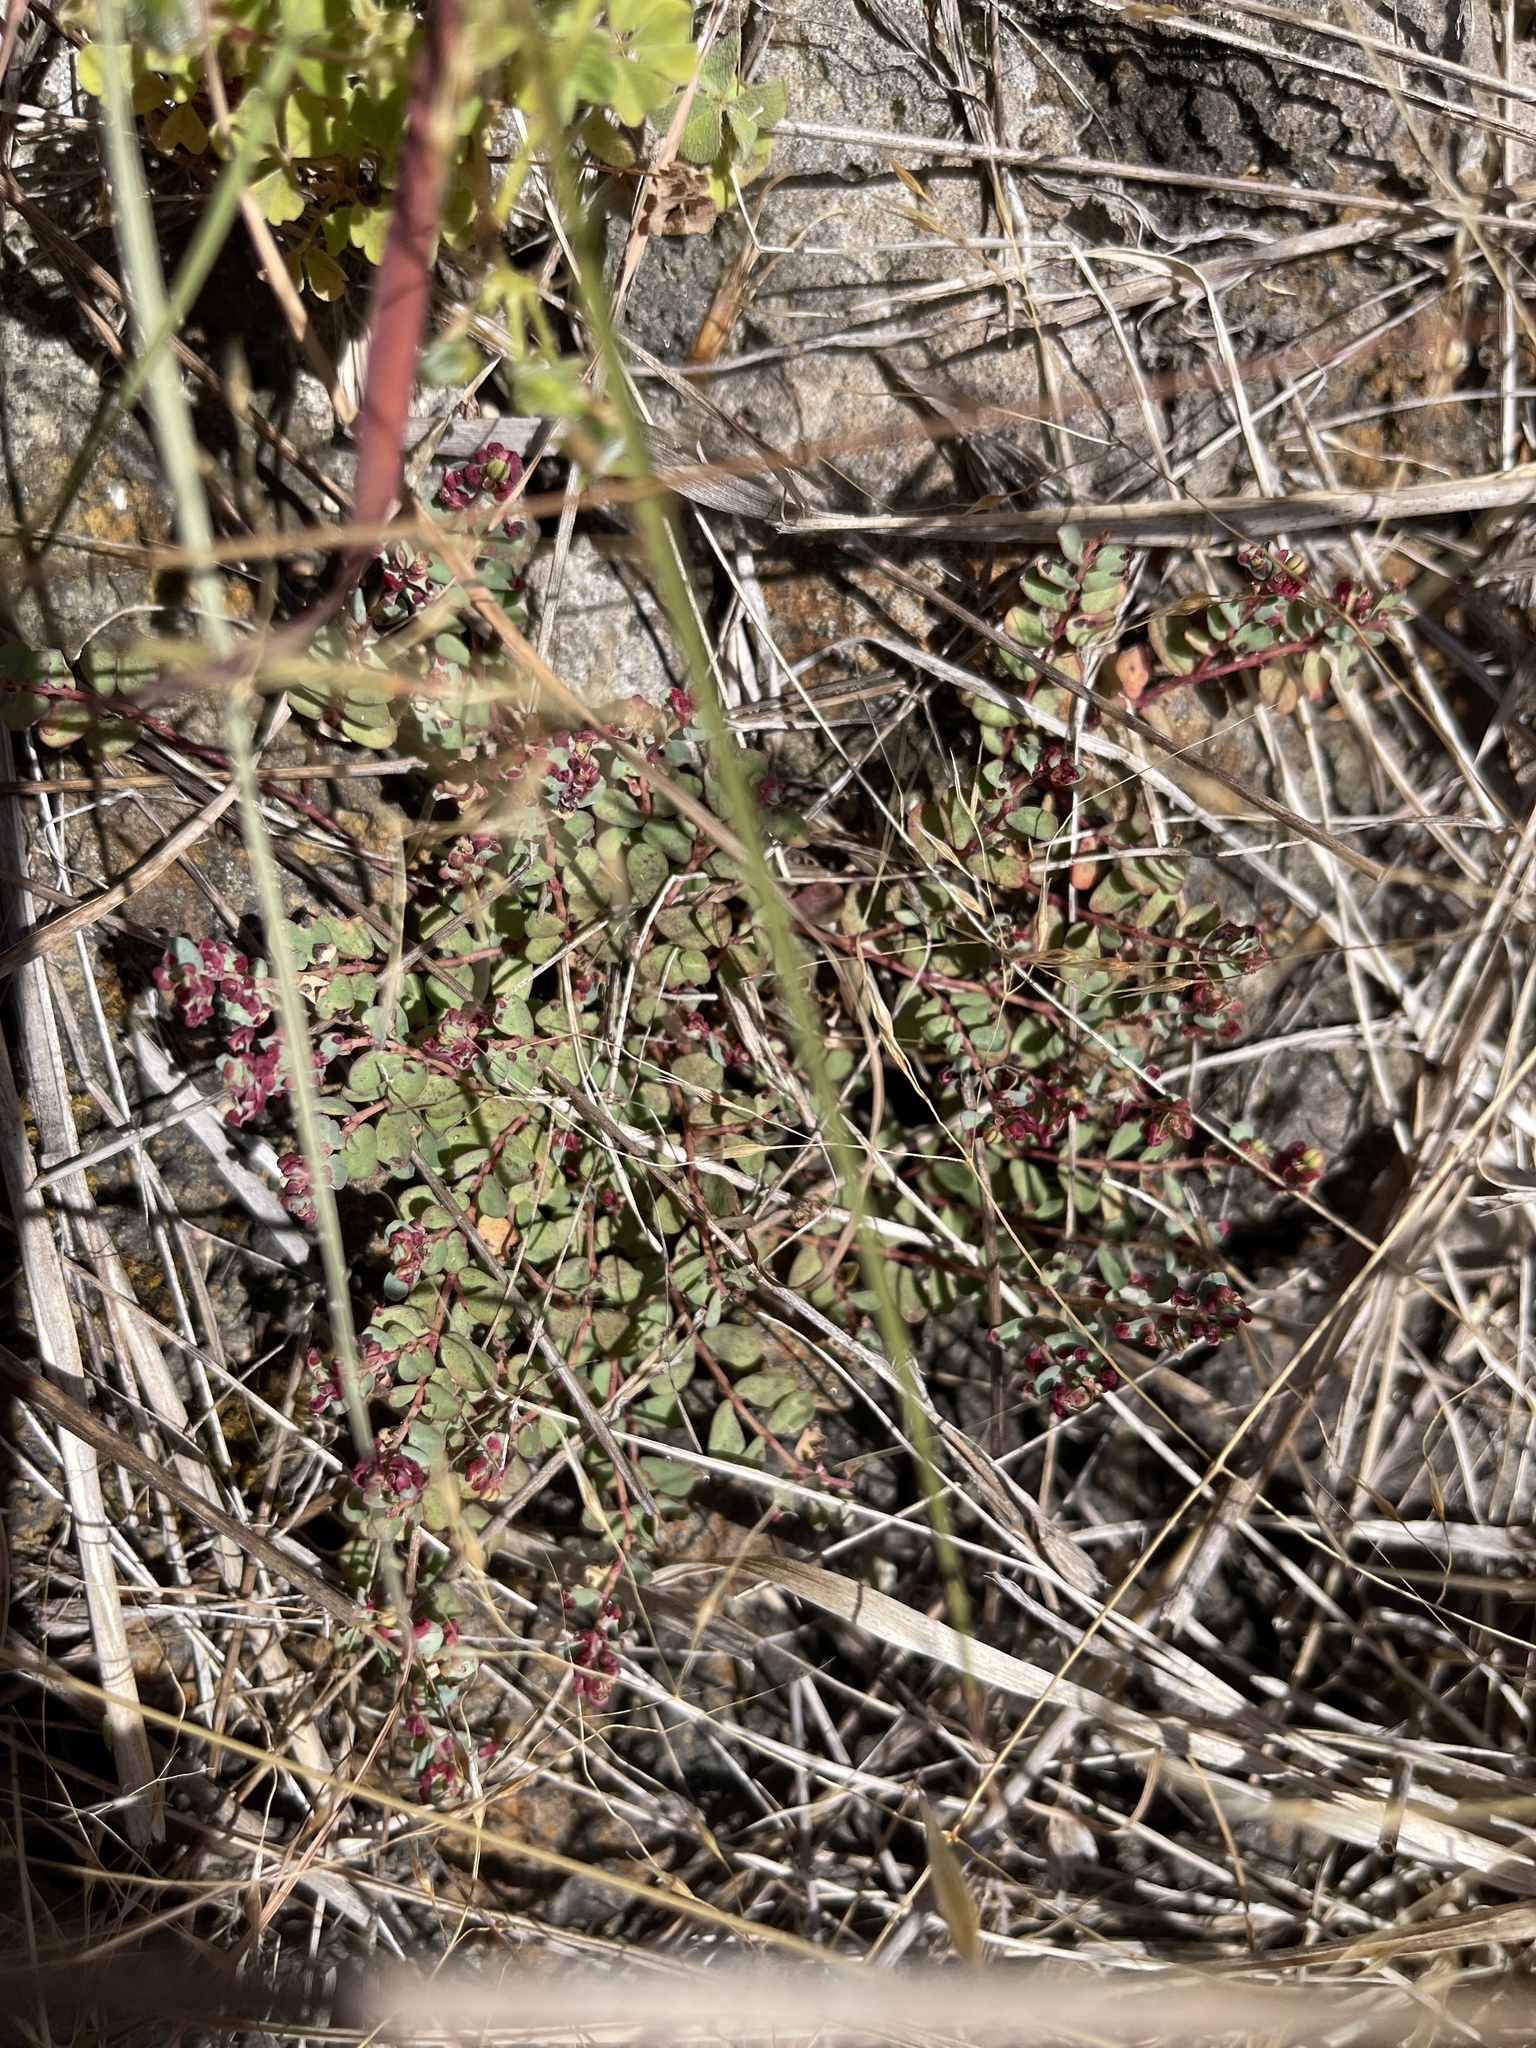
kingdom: Plantae
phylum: Tracheophyta
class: Magnoliopsida
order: Saxifragales
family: Haloragaceae
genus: Gonocarpus
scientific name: Gonocarpus micranthus
